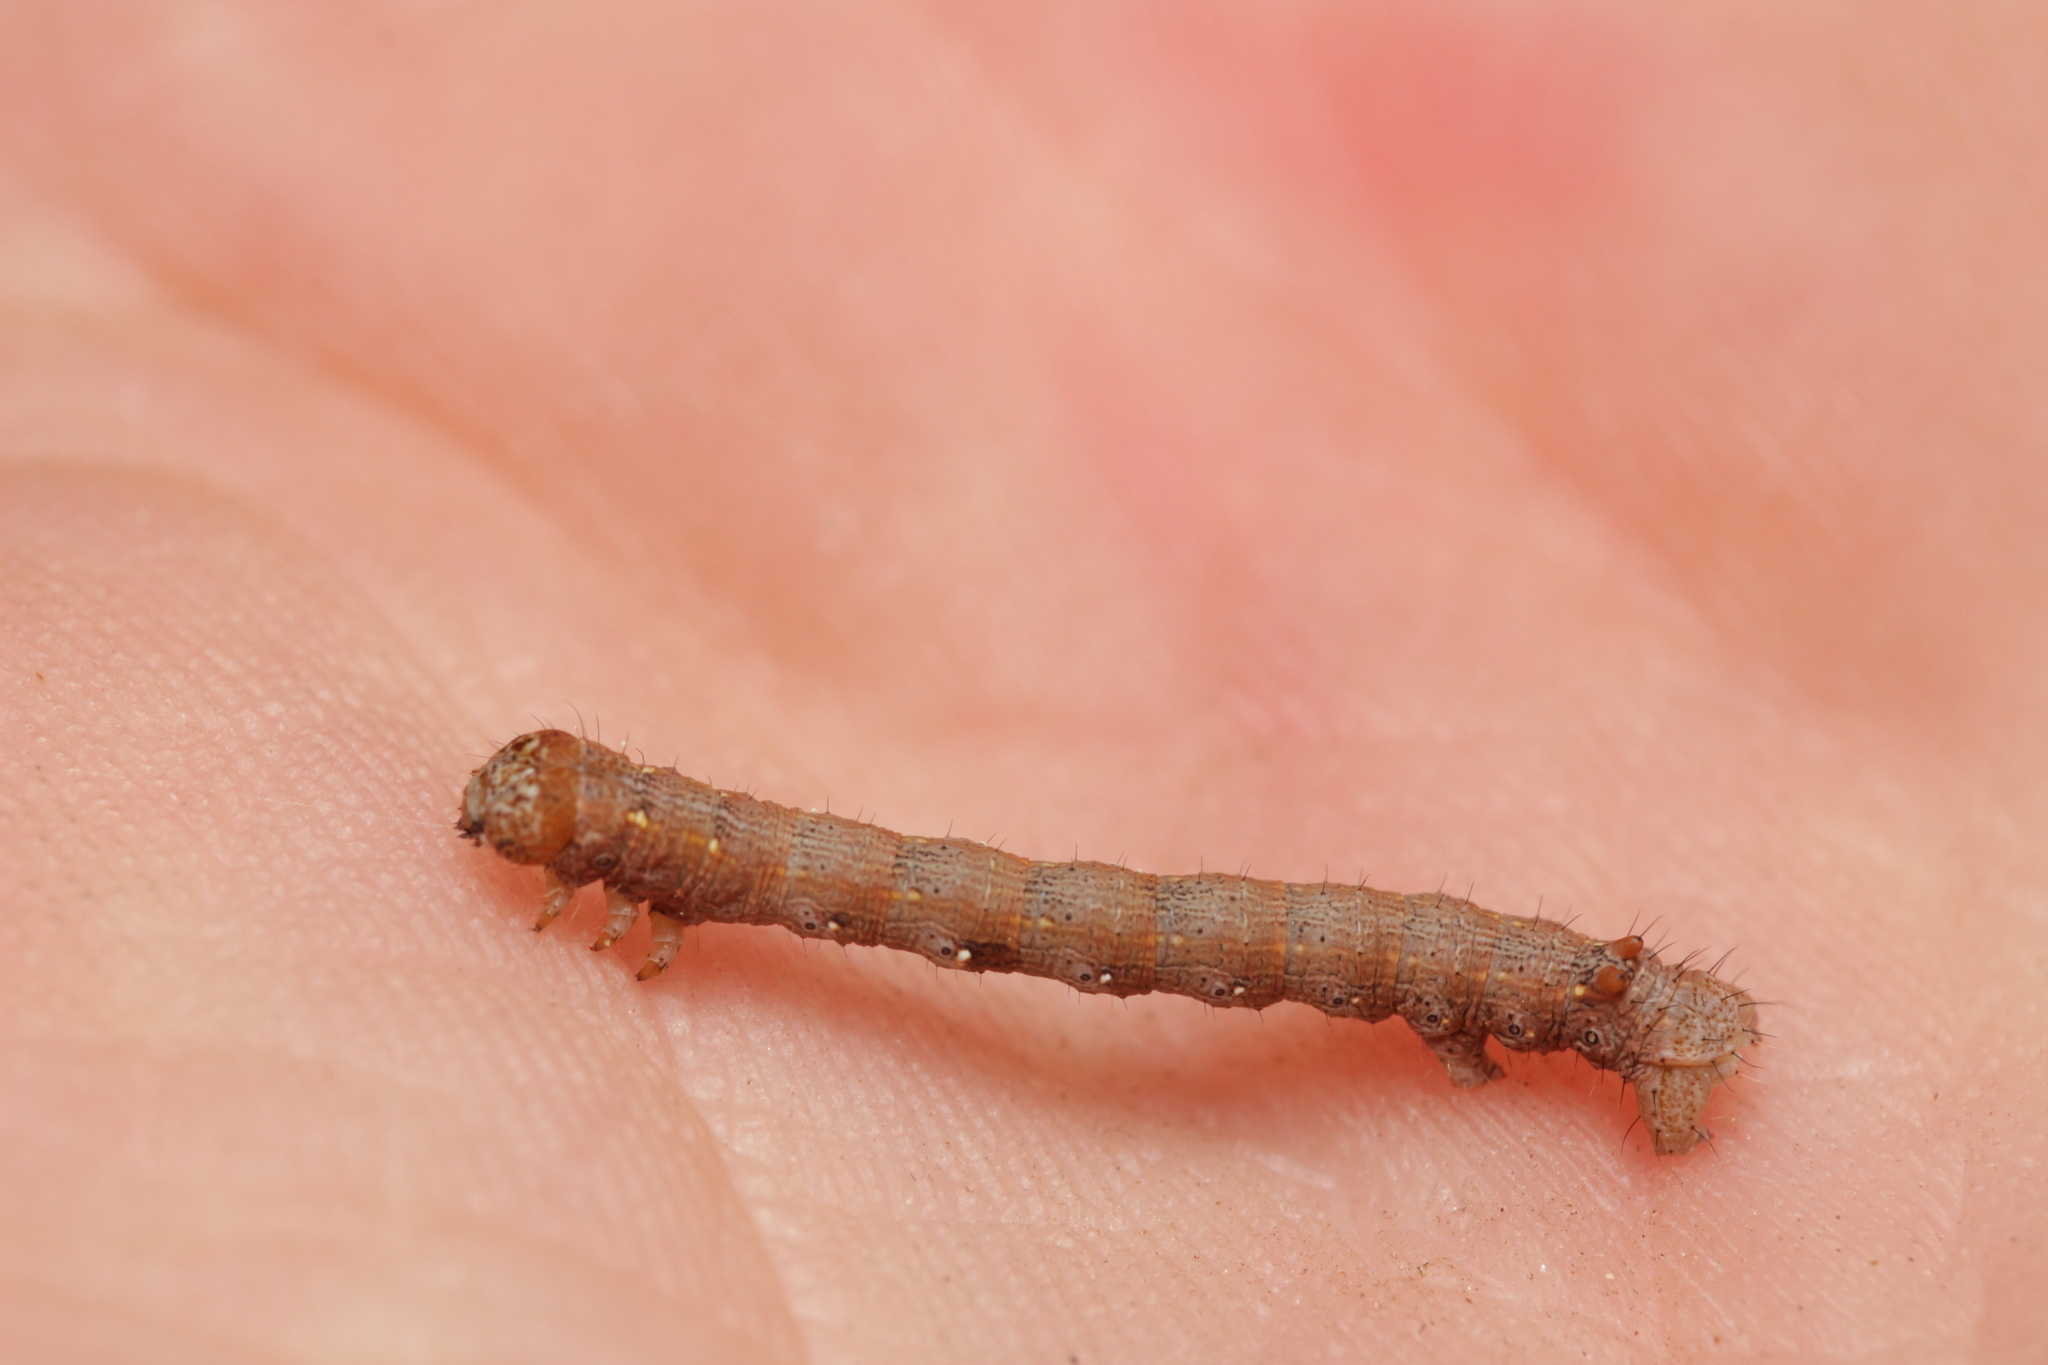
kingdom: Animalia
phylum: Arthropoda
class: Insecta
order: Lepidoptera
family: Geometridae
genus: Colotois
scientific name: Colotois pennaria
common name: Feathered thorn
